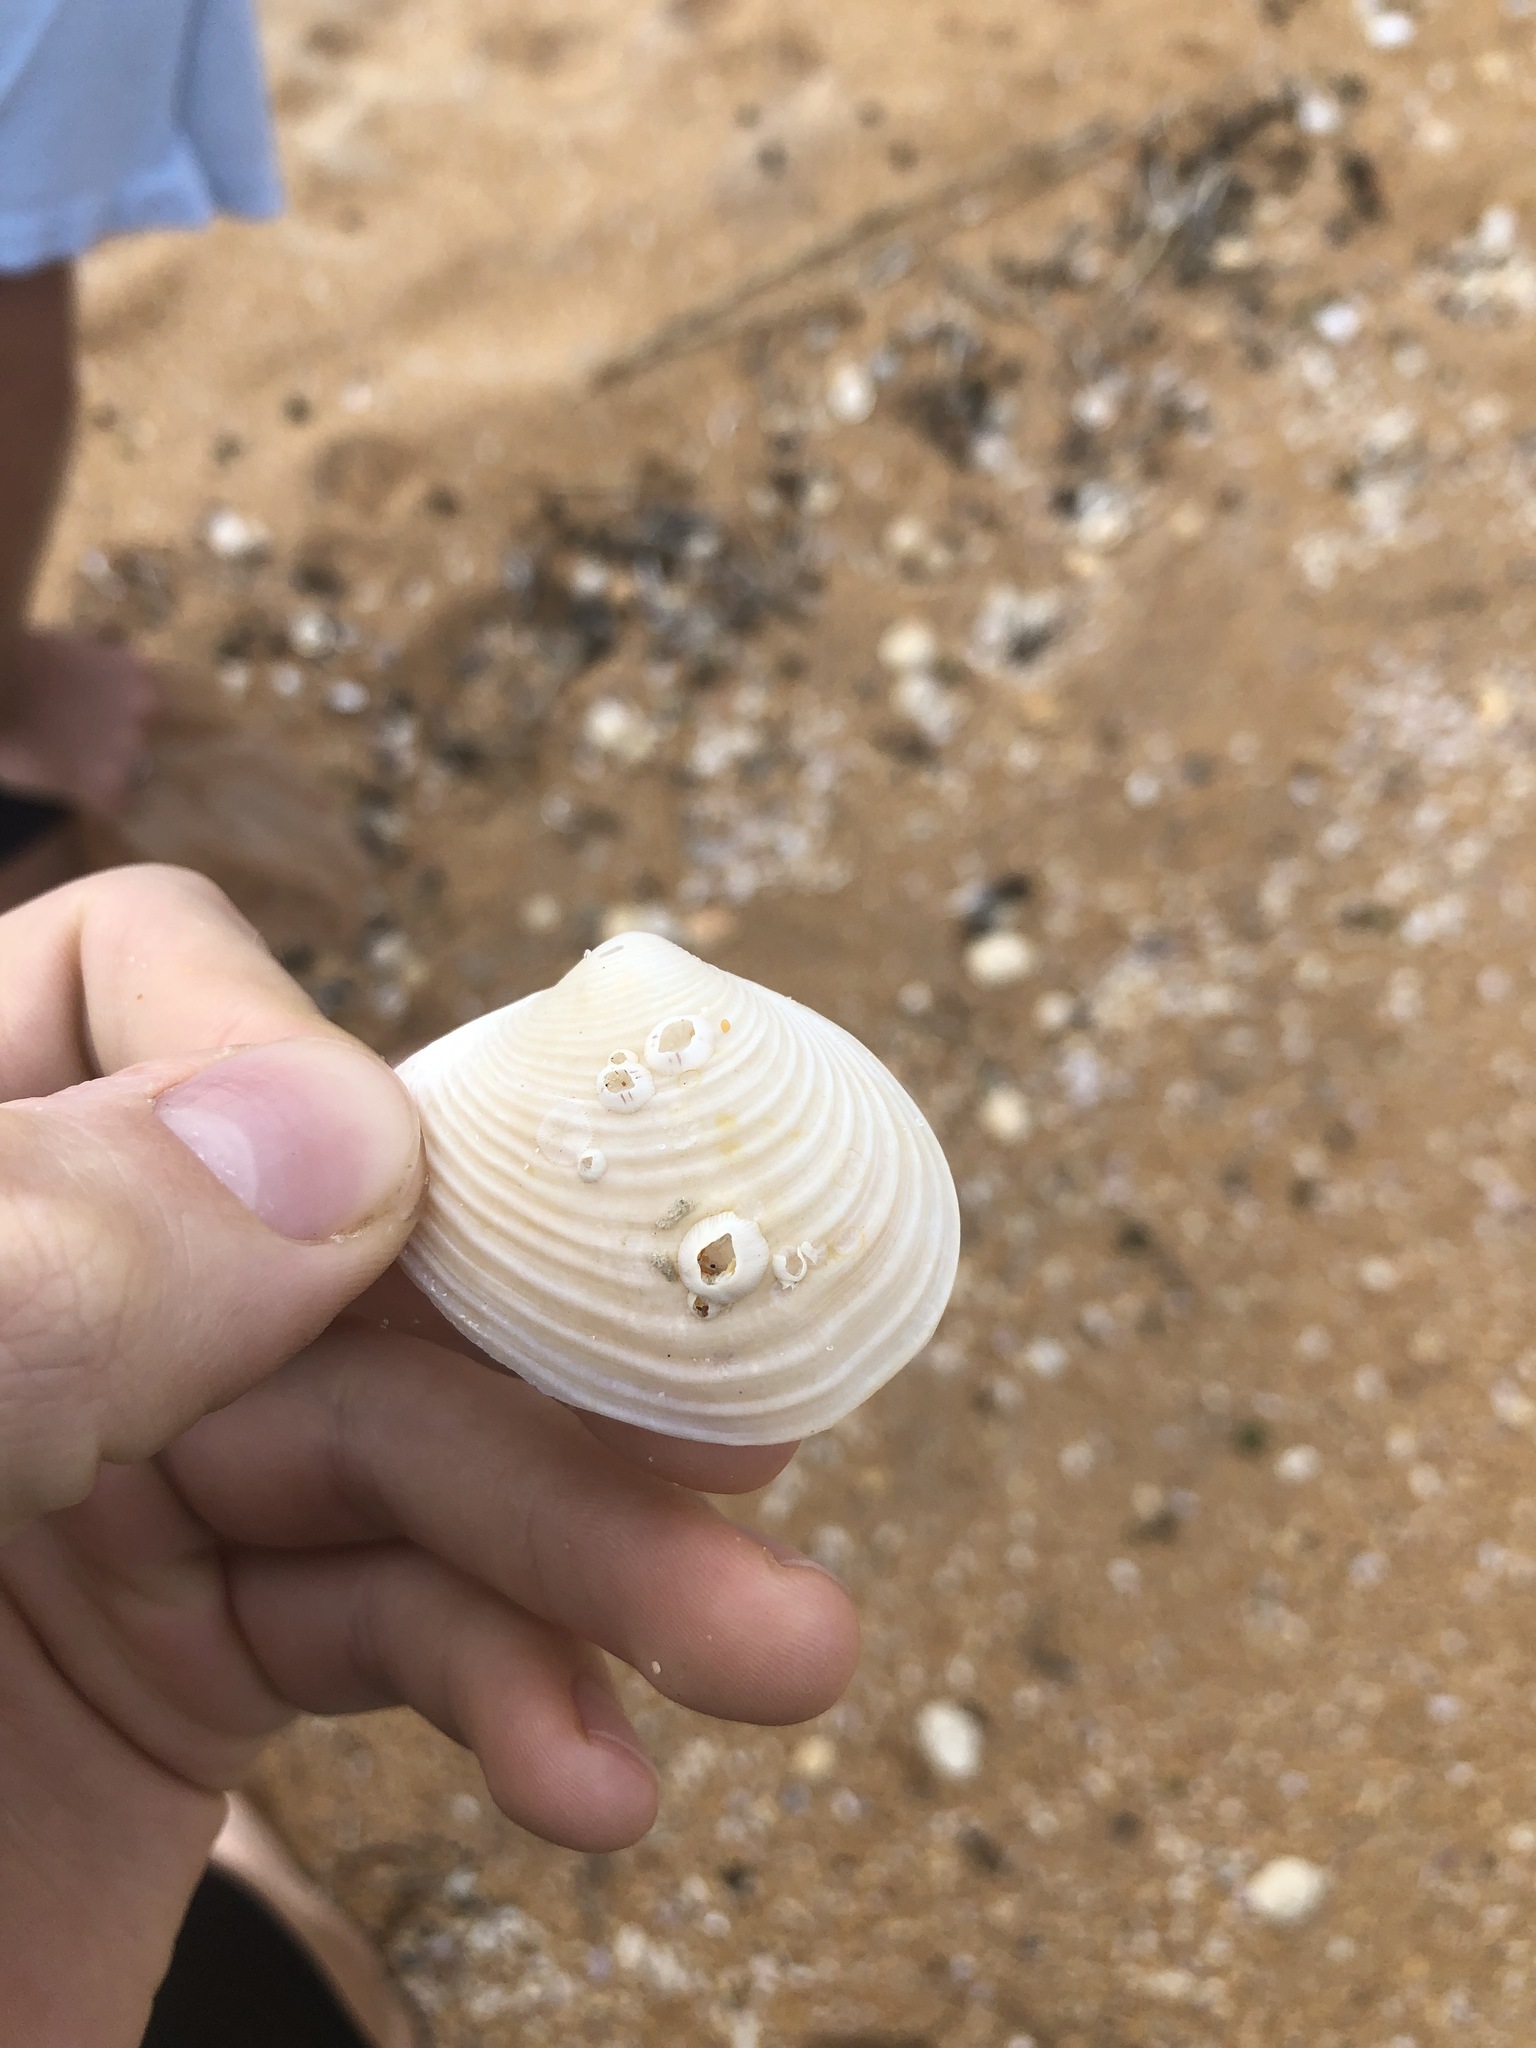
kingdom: Animalia
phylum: Arthropoda
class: Maxillopoda
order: Sessilia
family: Balanidae
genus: Amphibalanus
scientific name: Amphibalanus venustus
